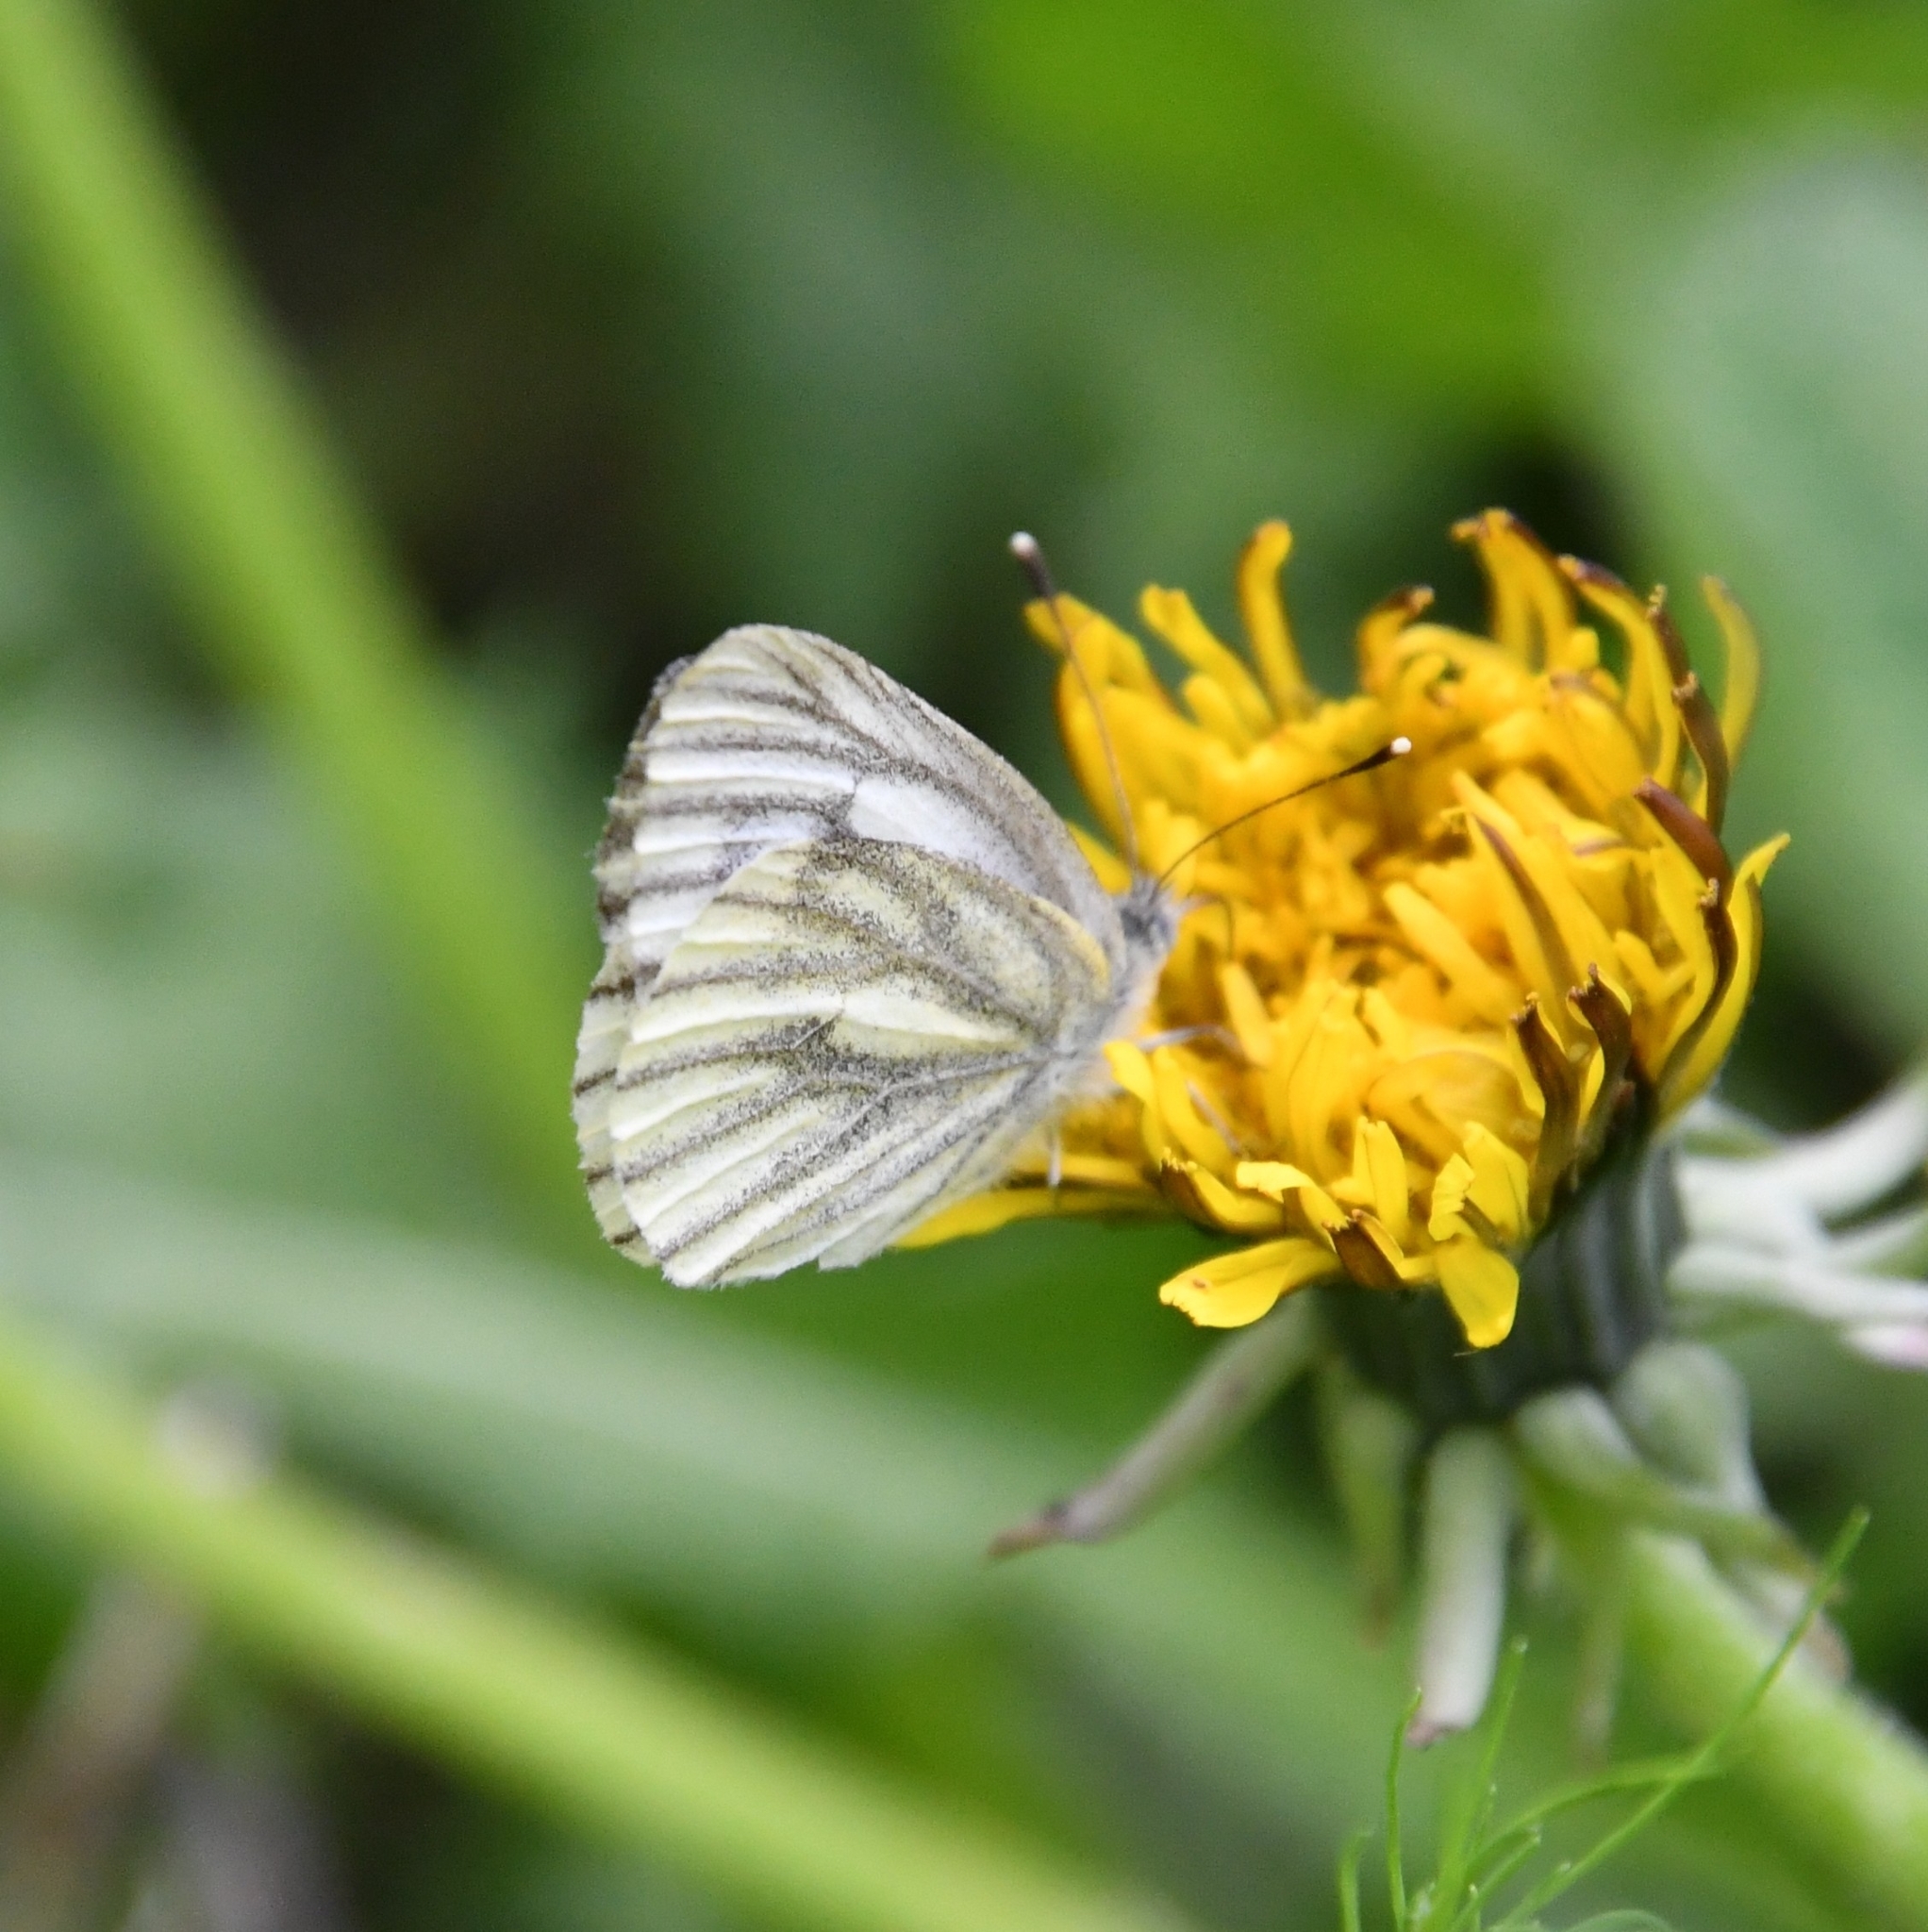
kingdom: Animalia
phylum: Arthropoda
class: Insecta
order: Lepidoptera
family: Pieridae
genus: Pieris
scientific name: Pieris napi
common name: Green-veined white
